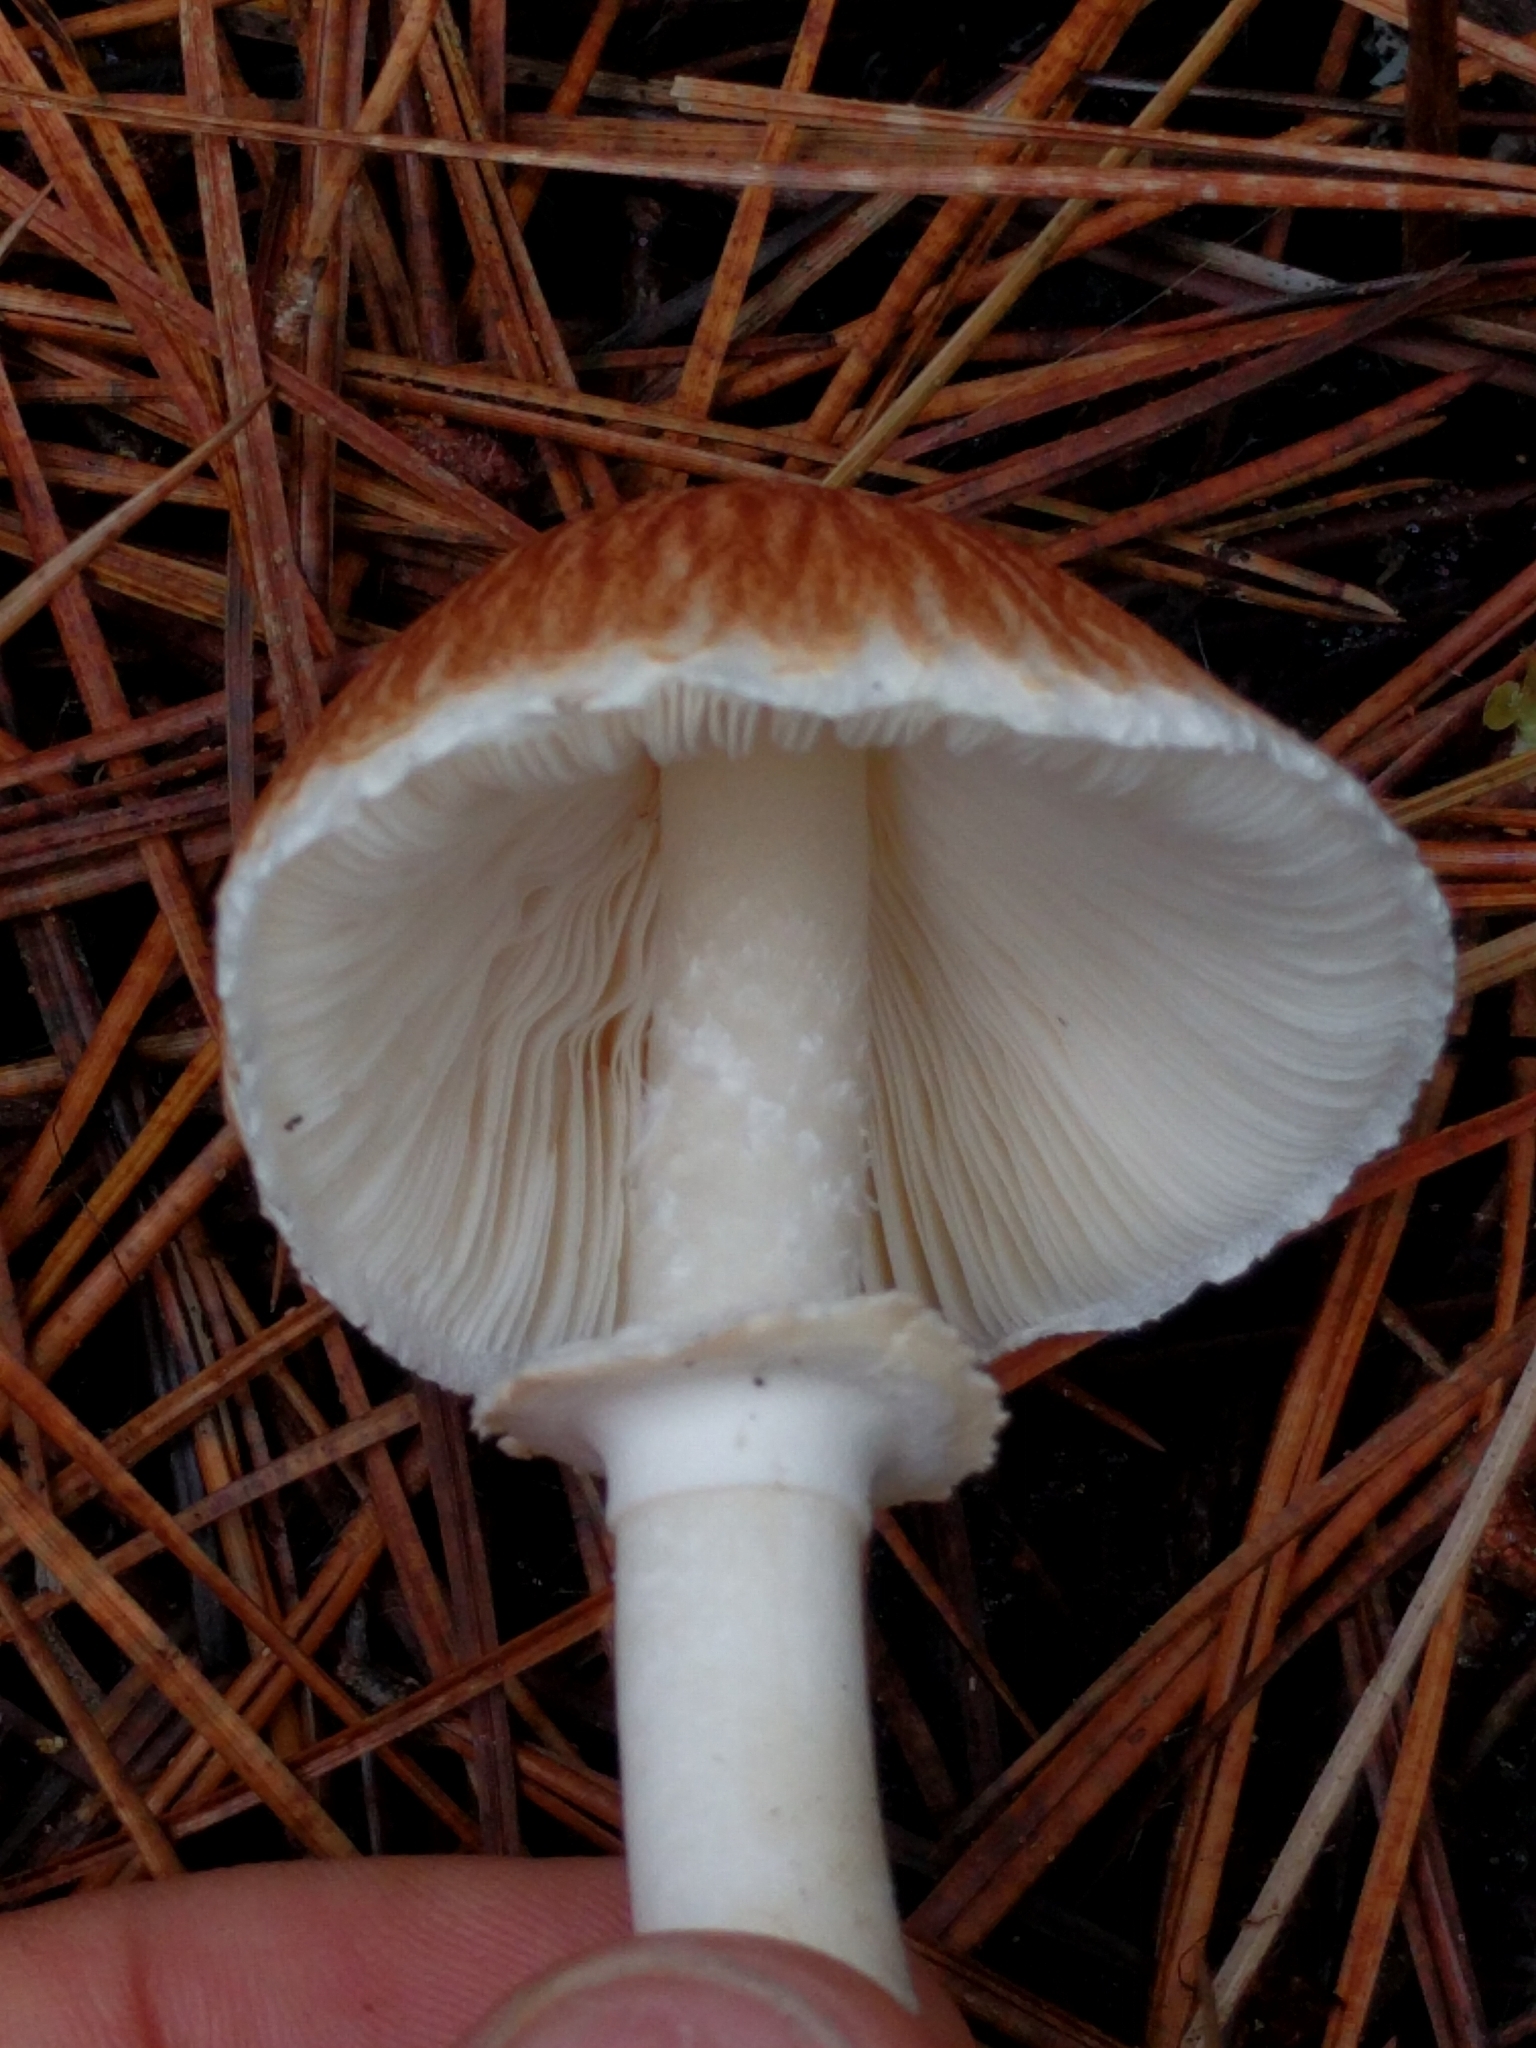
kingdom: Fungi
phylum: Basidiomycota
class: Agaricomycetes
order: Agaricales
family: Agaricaceae
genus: Lepiota
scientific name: Lepiota rubrotinctoides
